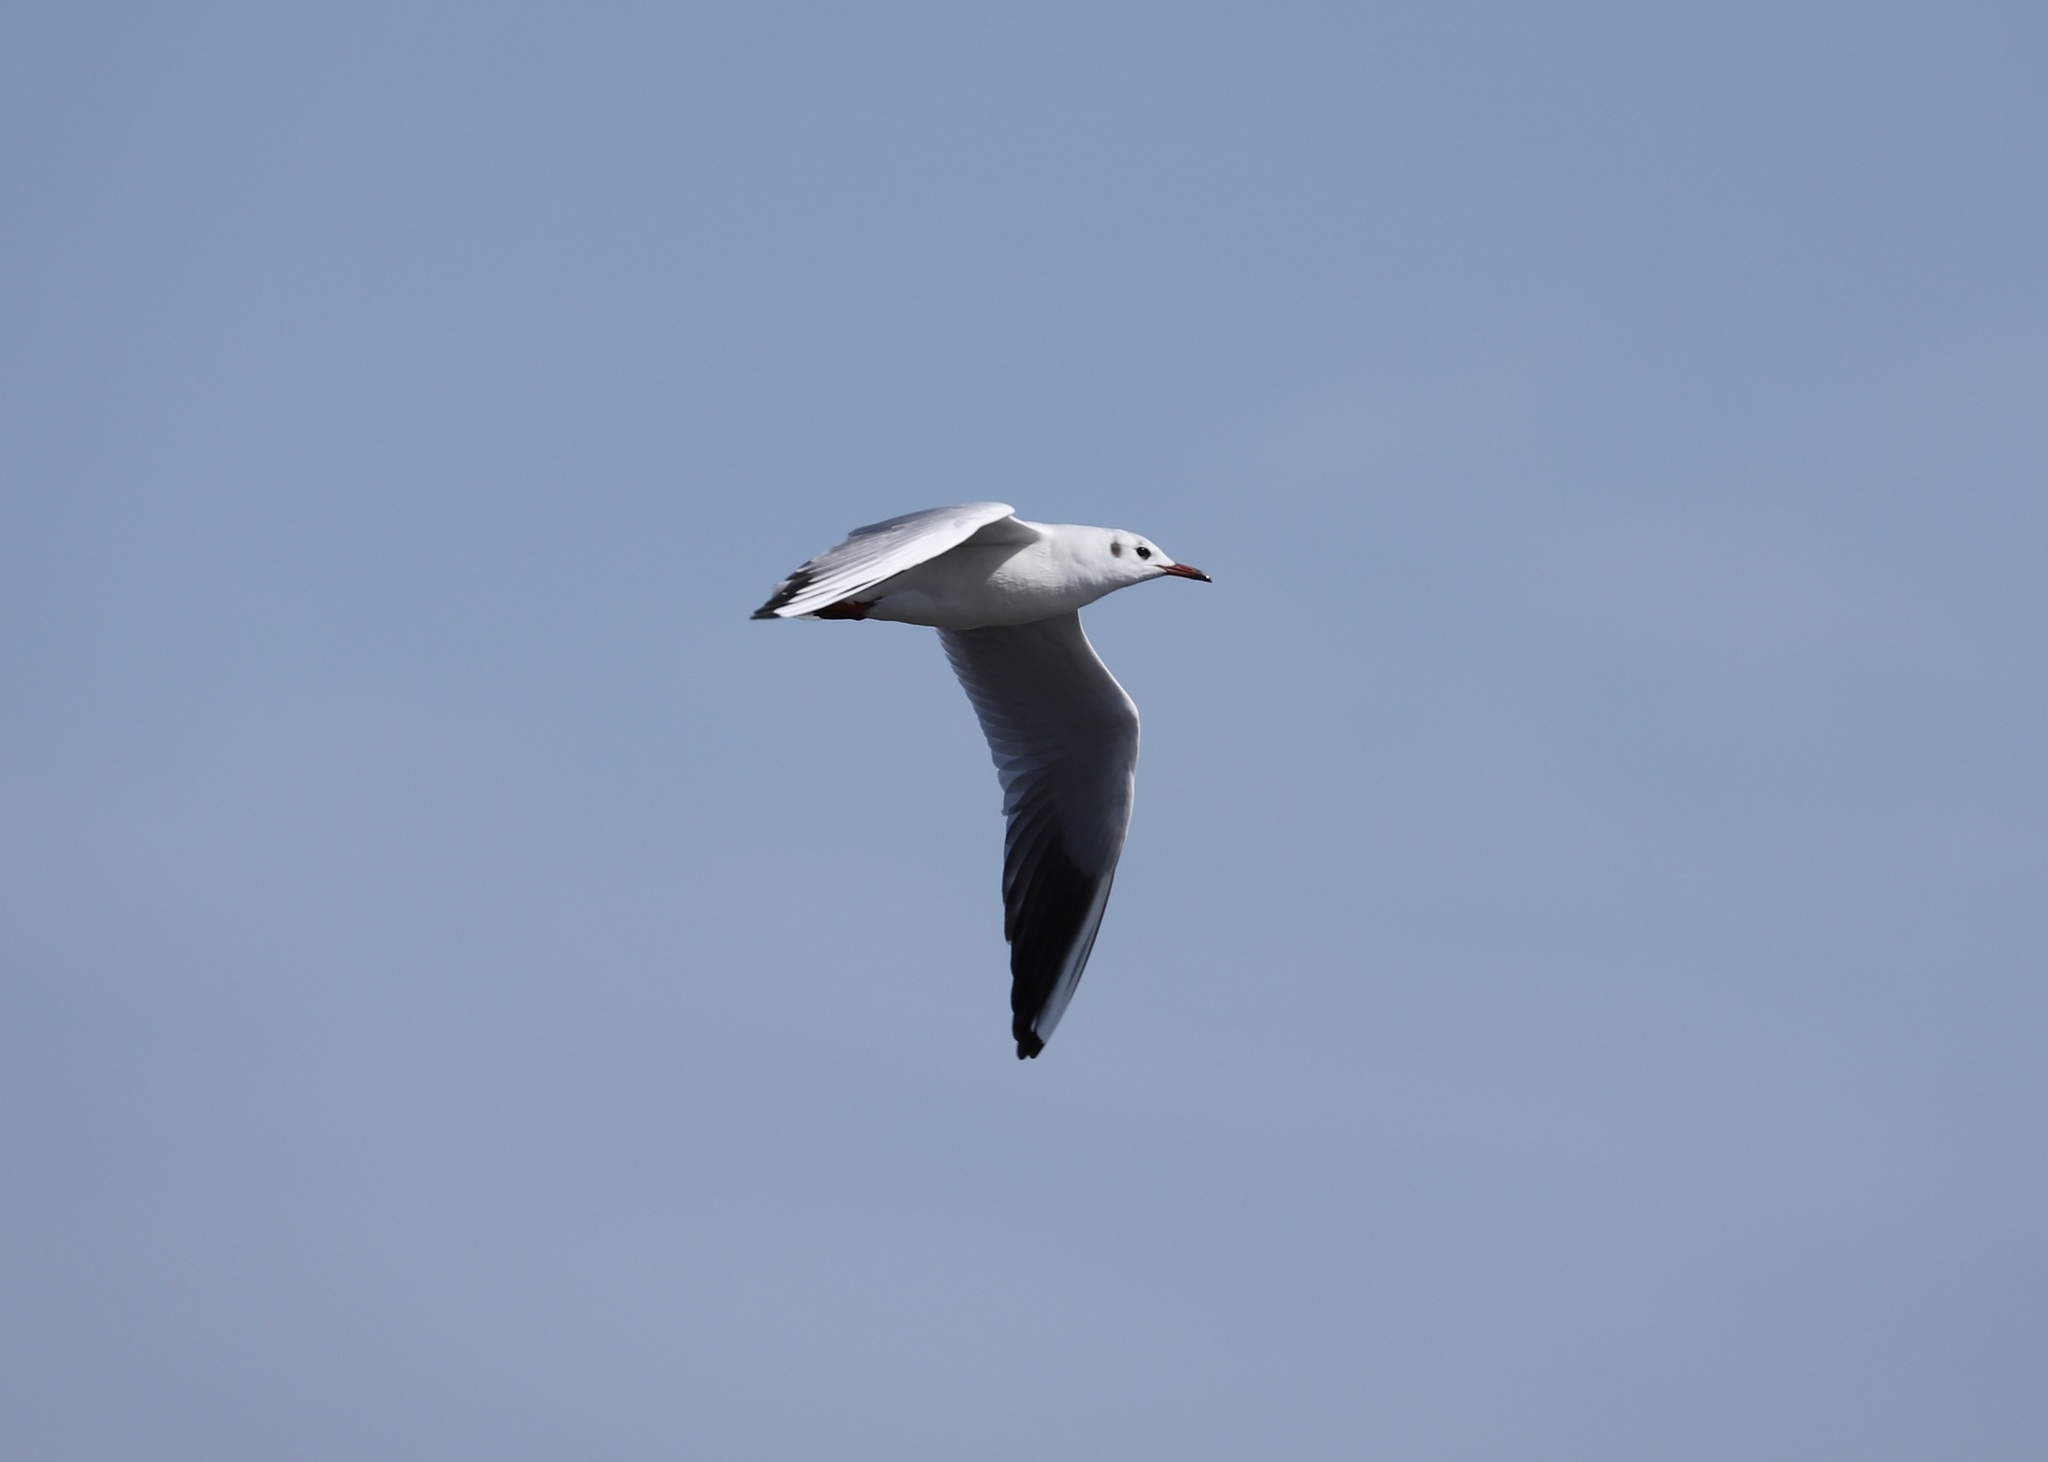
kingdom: Animalia
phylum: Chordata
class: Aves
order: Charadriiformes
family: Laridae
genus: Chroicocephalus
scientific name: Chroicocephalus ridibundus
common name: Black-headed gull
